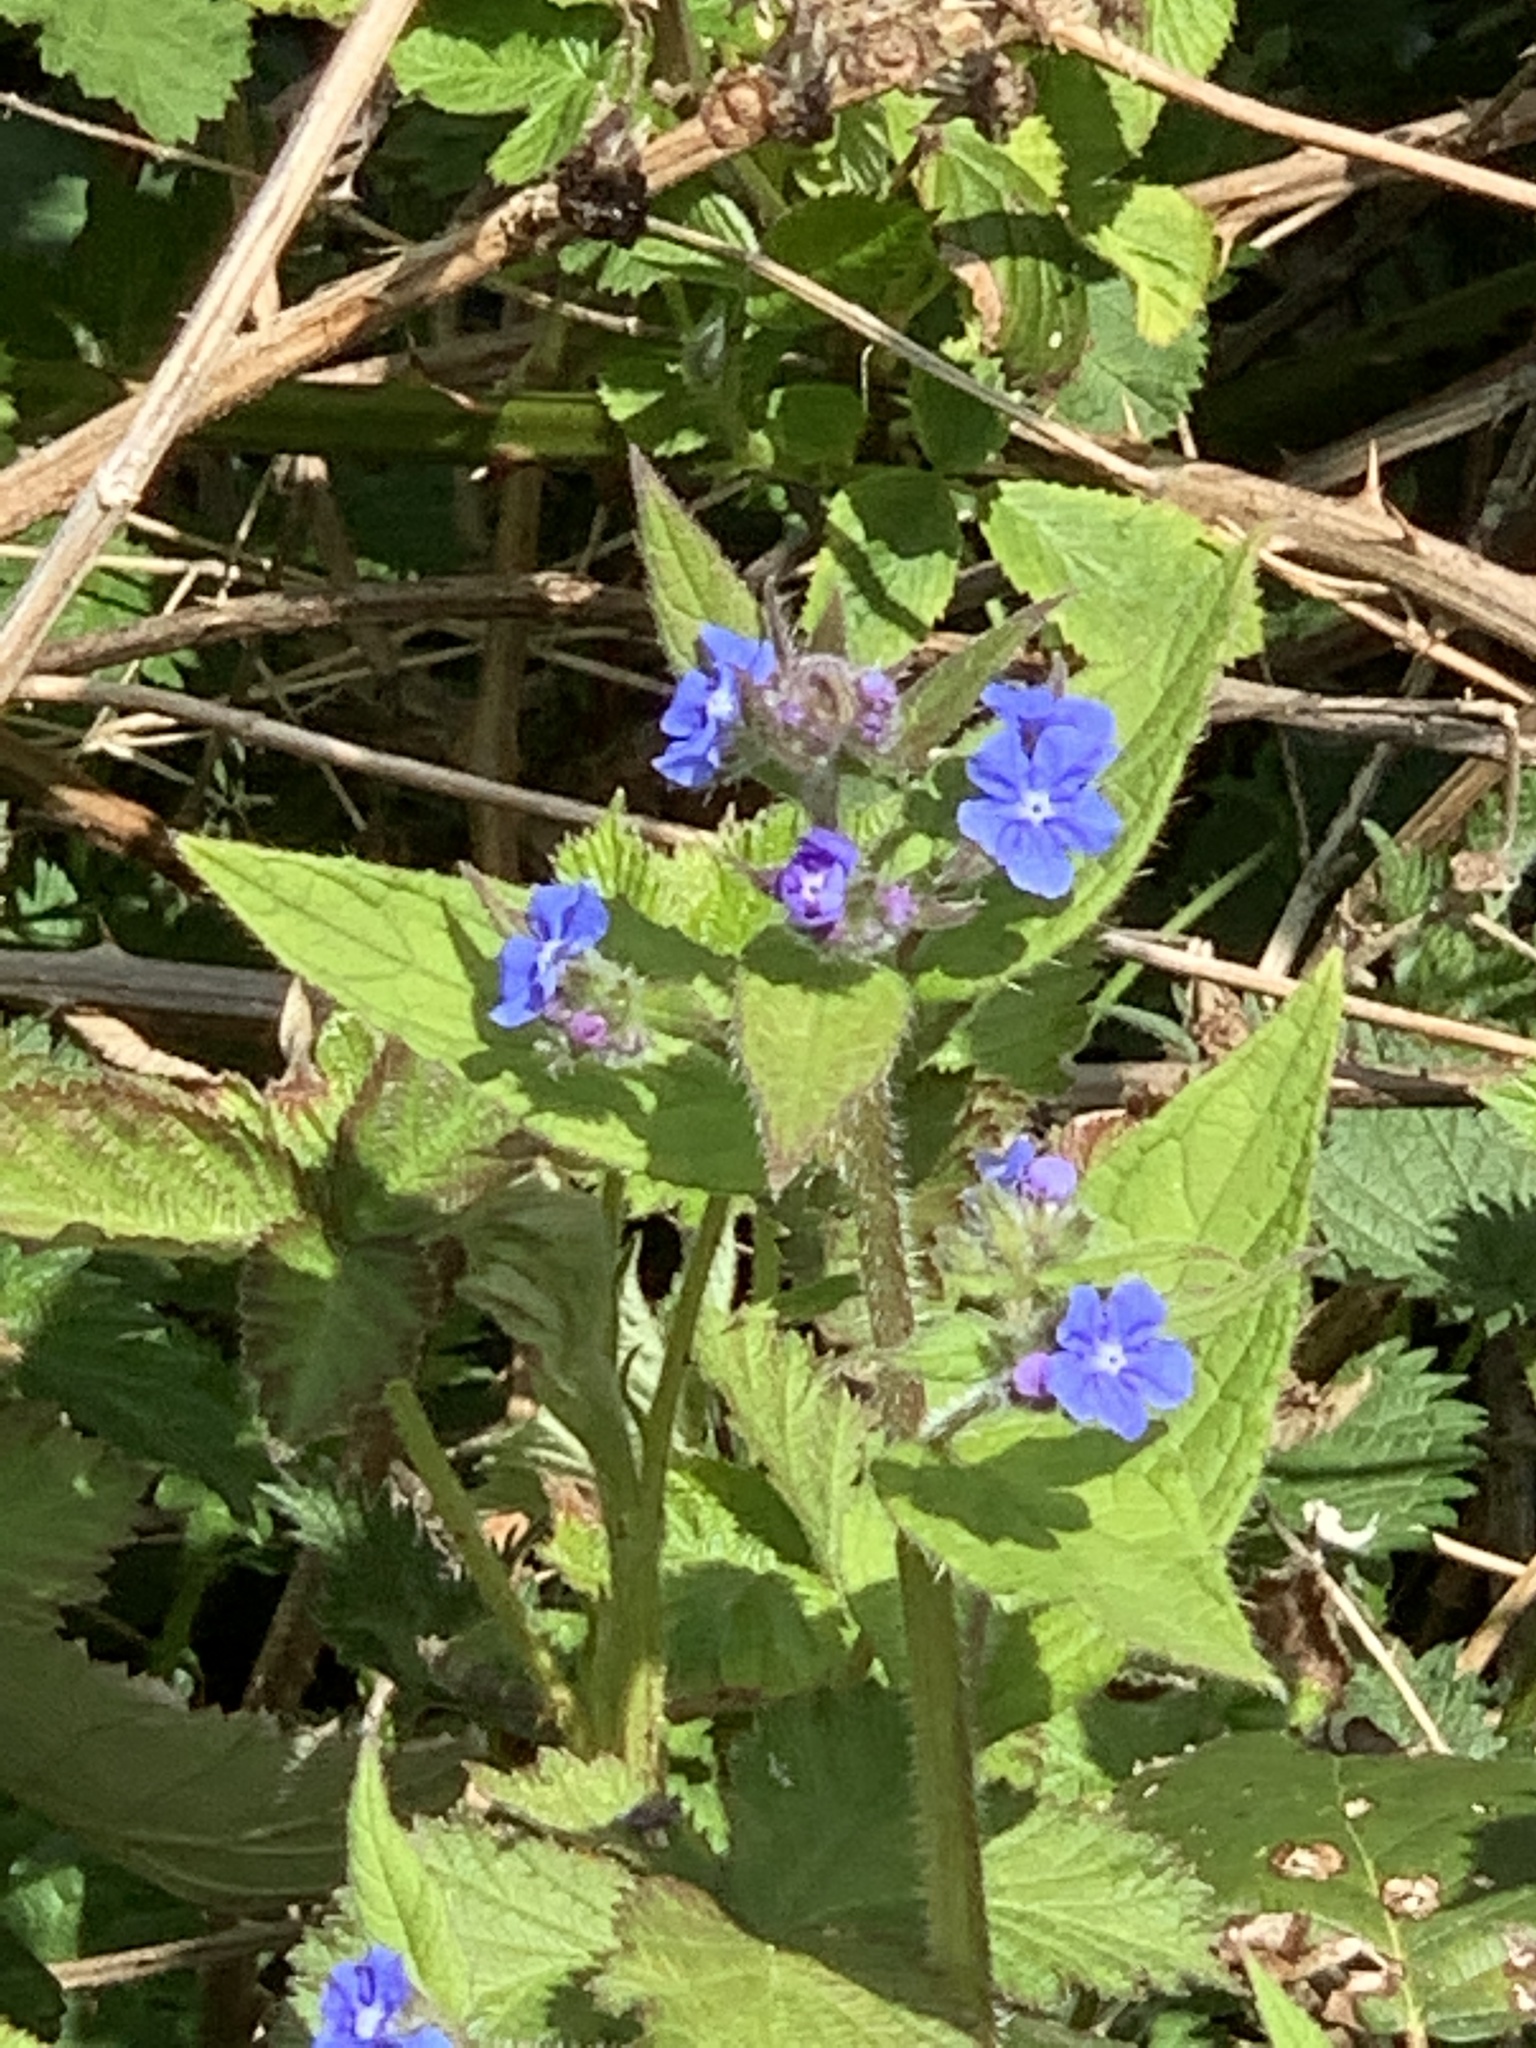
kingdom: Plantae
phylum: Tracheophyta
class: Magnoliopsida
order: Boraginales
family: Boraginaceae
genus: Pentaglottis
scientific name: Pentaglottis sempervirens
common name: Green alkanet
